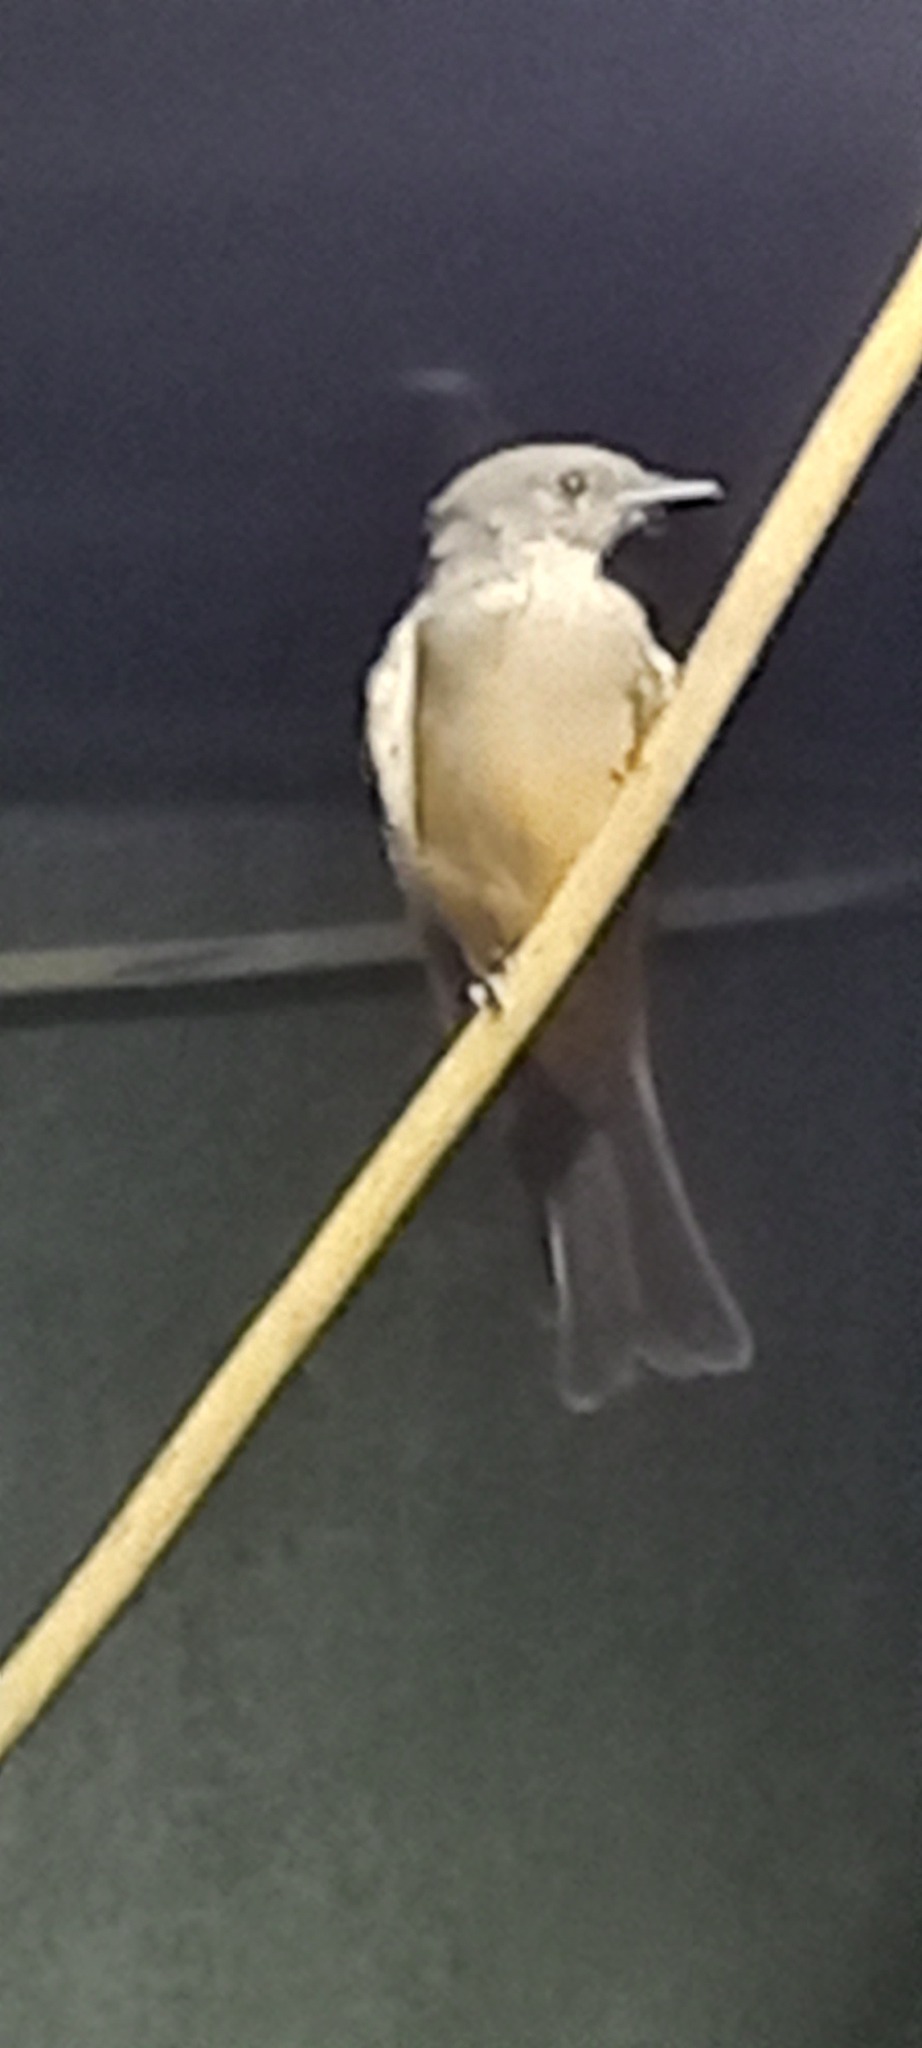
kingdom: Animalia
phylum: Chordata
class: Aves
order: Passeriformes
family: Tyrannidae
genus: Sayornis
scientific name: Sayornis saya
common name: Say's phoebe
